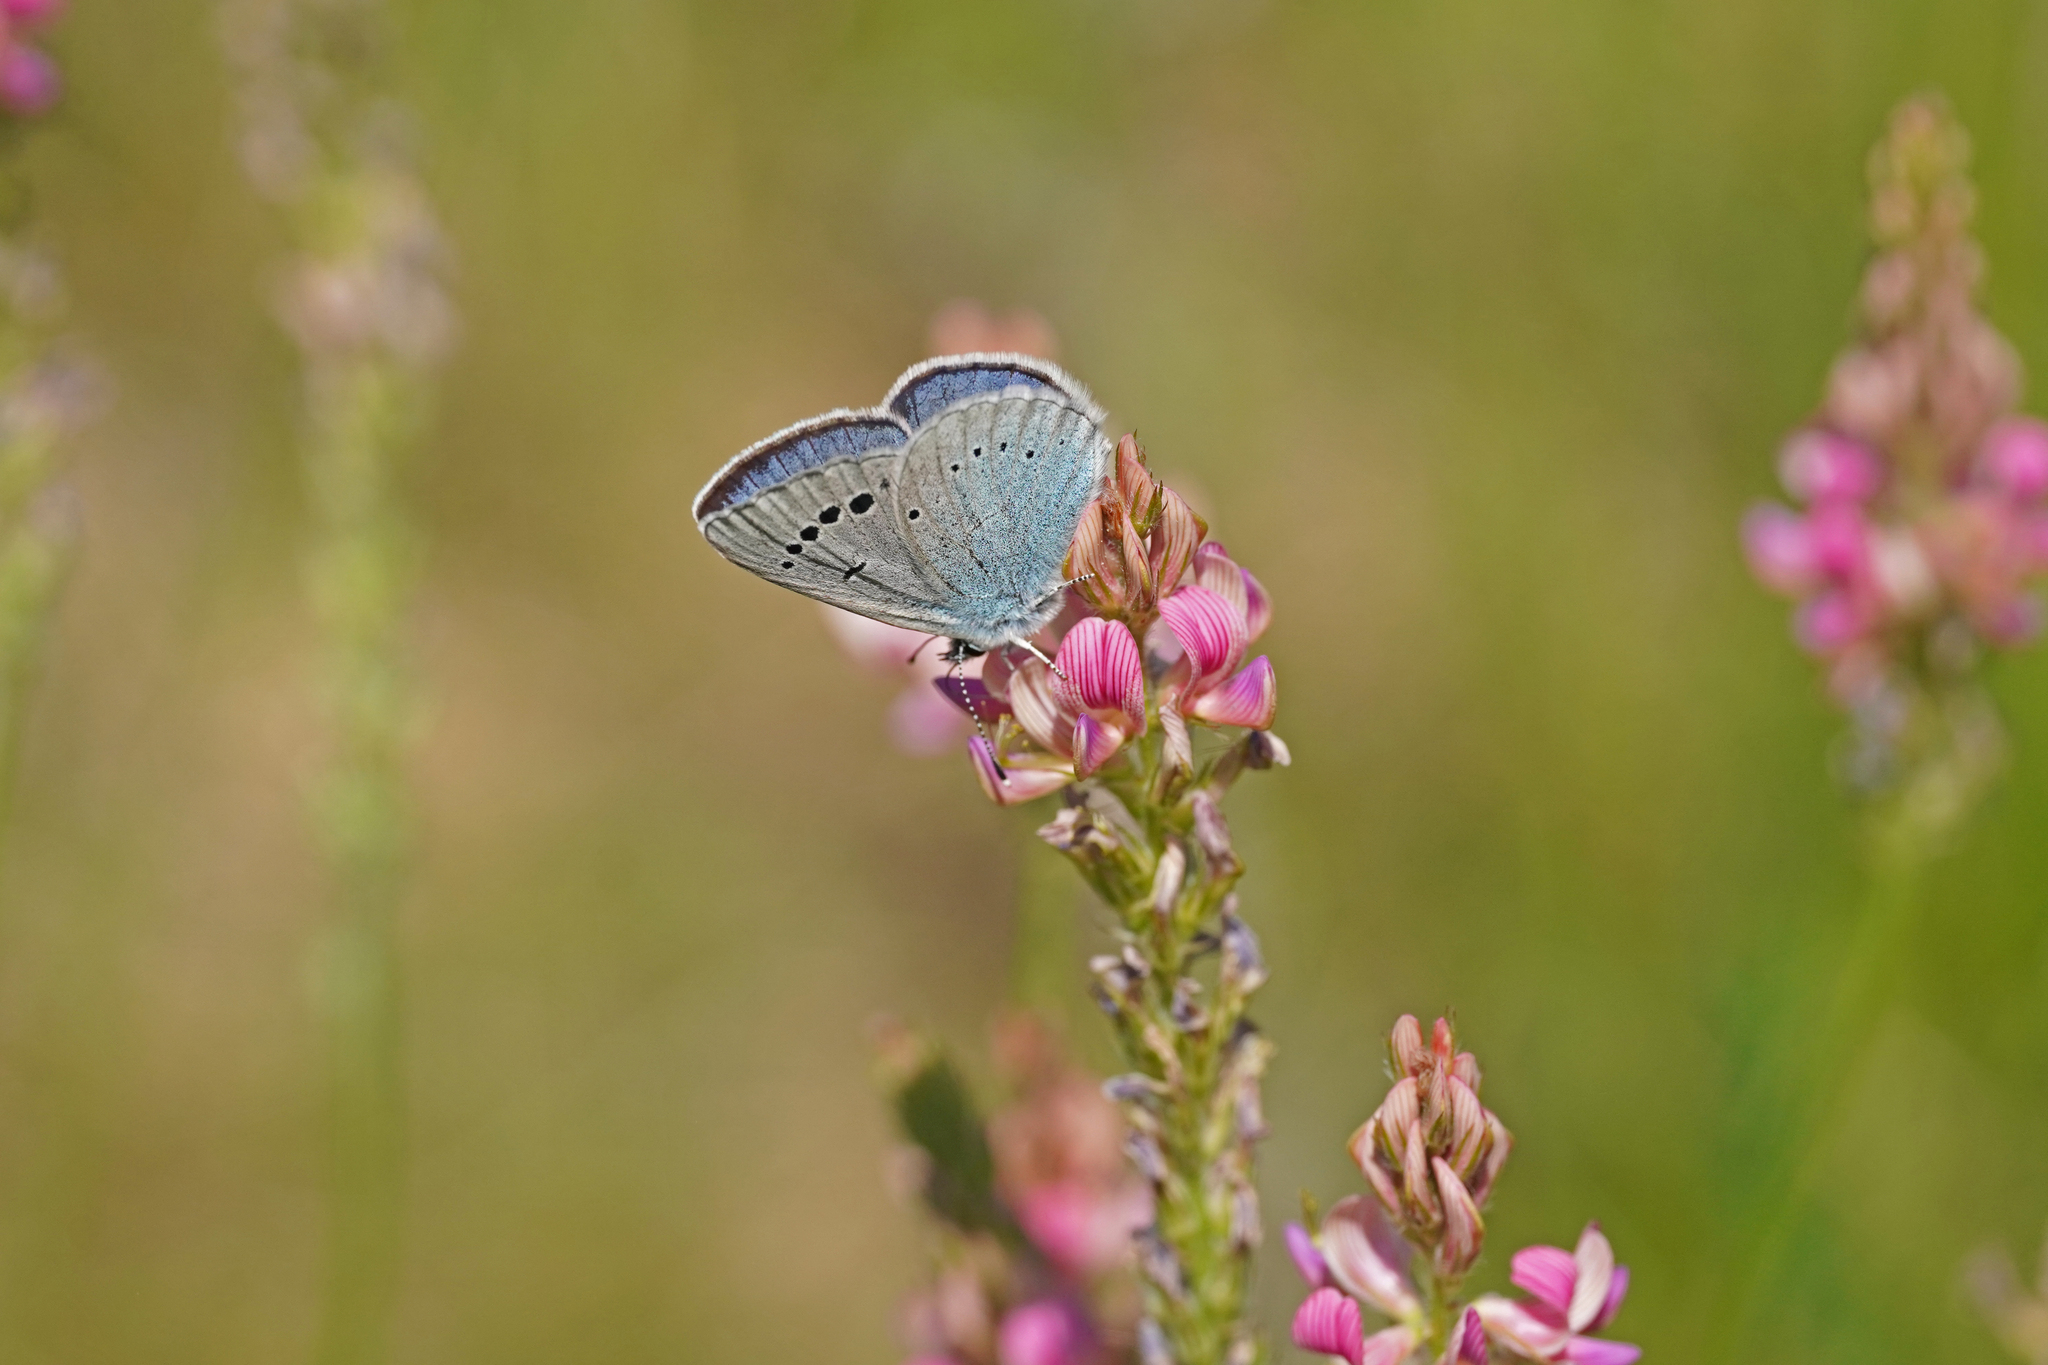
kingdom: Animalia
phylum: Arthropoda
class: Insecta
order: Lepidoptera
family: Lycaenidae
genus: Glaucopsyche
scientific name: Glaucopsyche alexis
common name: Green-underside blue
